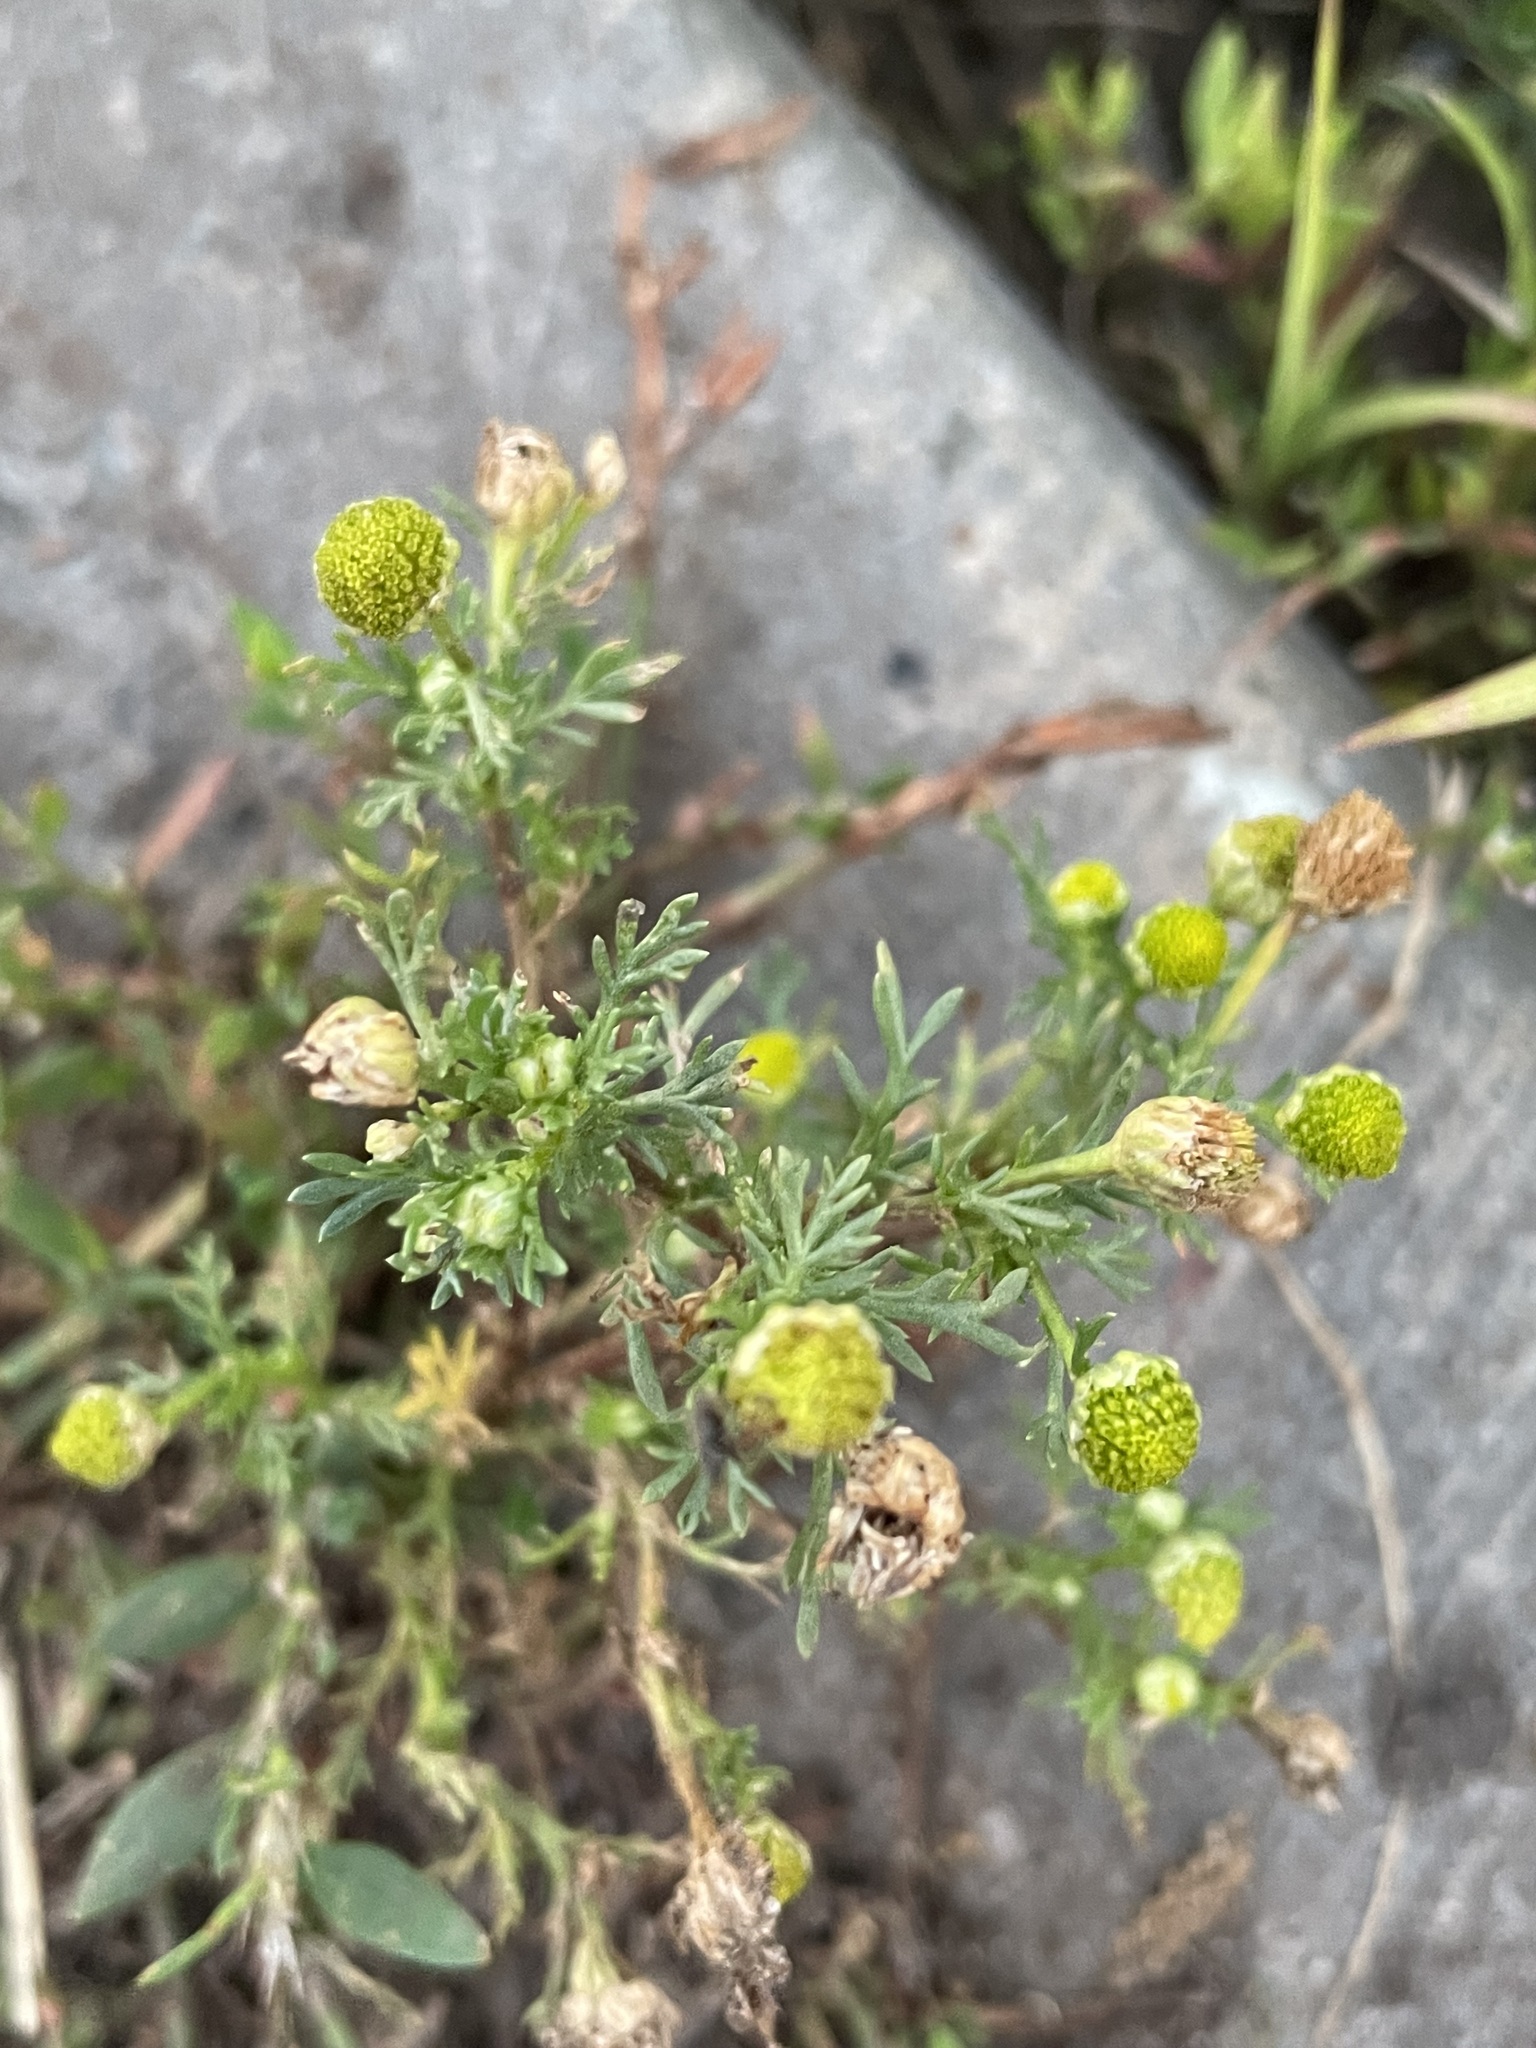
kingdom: Plantae
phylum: Tracheophyta
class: Magnoliopsida
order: Asterales
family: Asteraceae
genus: Matricaria
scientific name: Matricaria discoidea
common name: Disc mayweed
